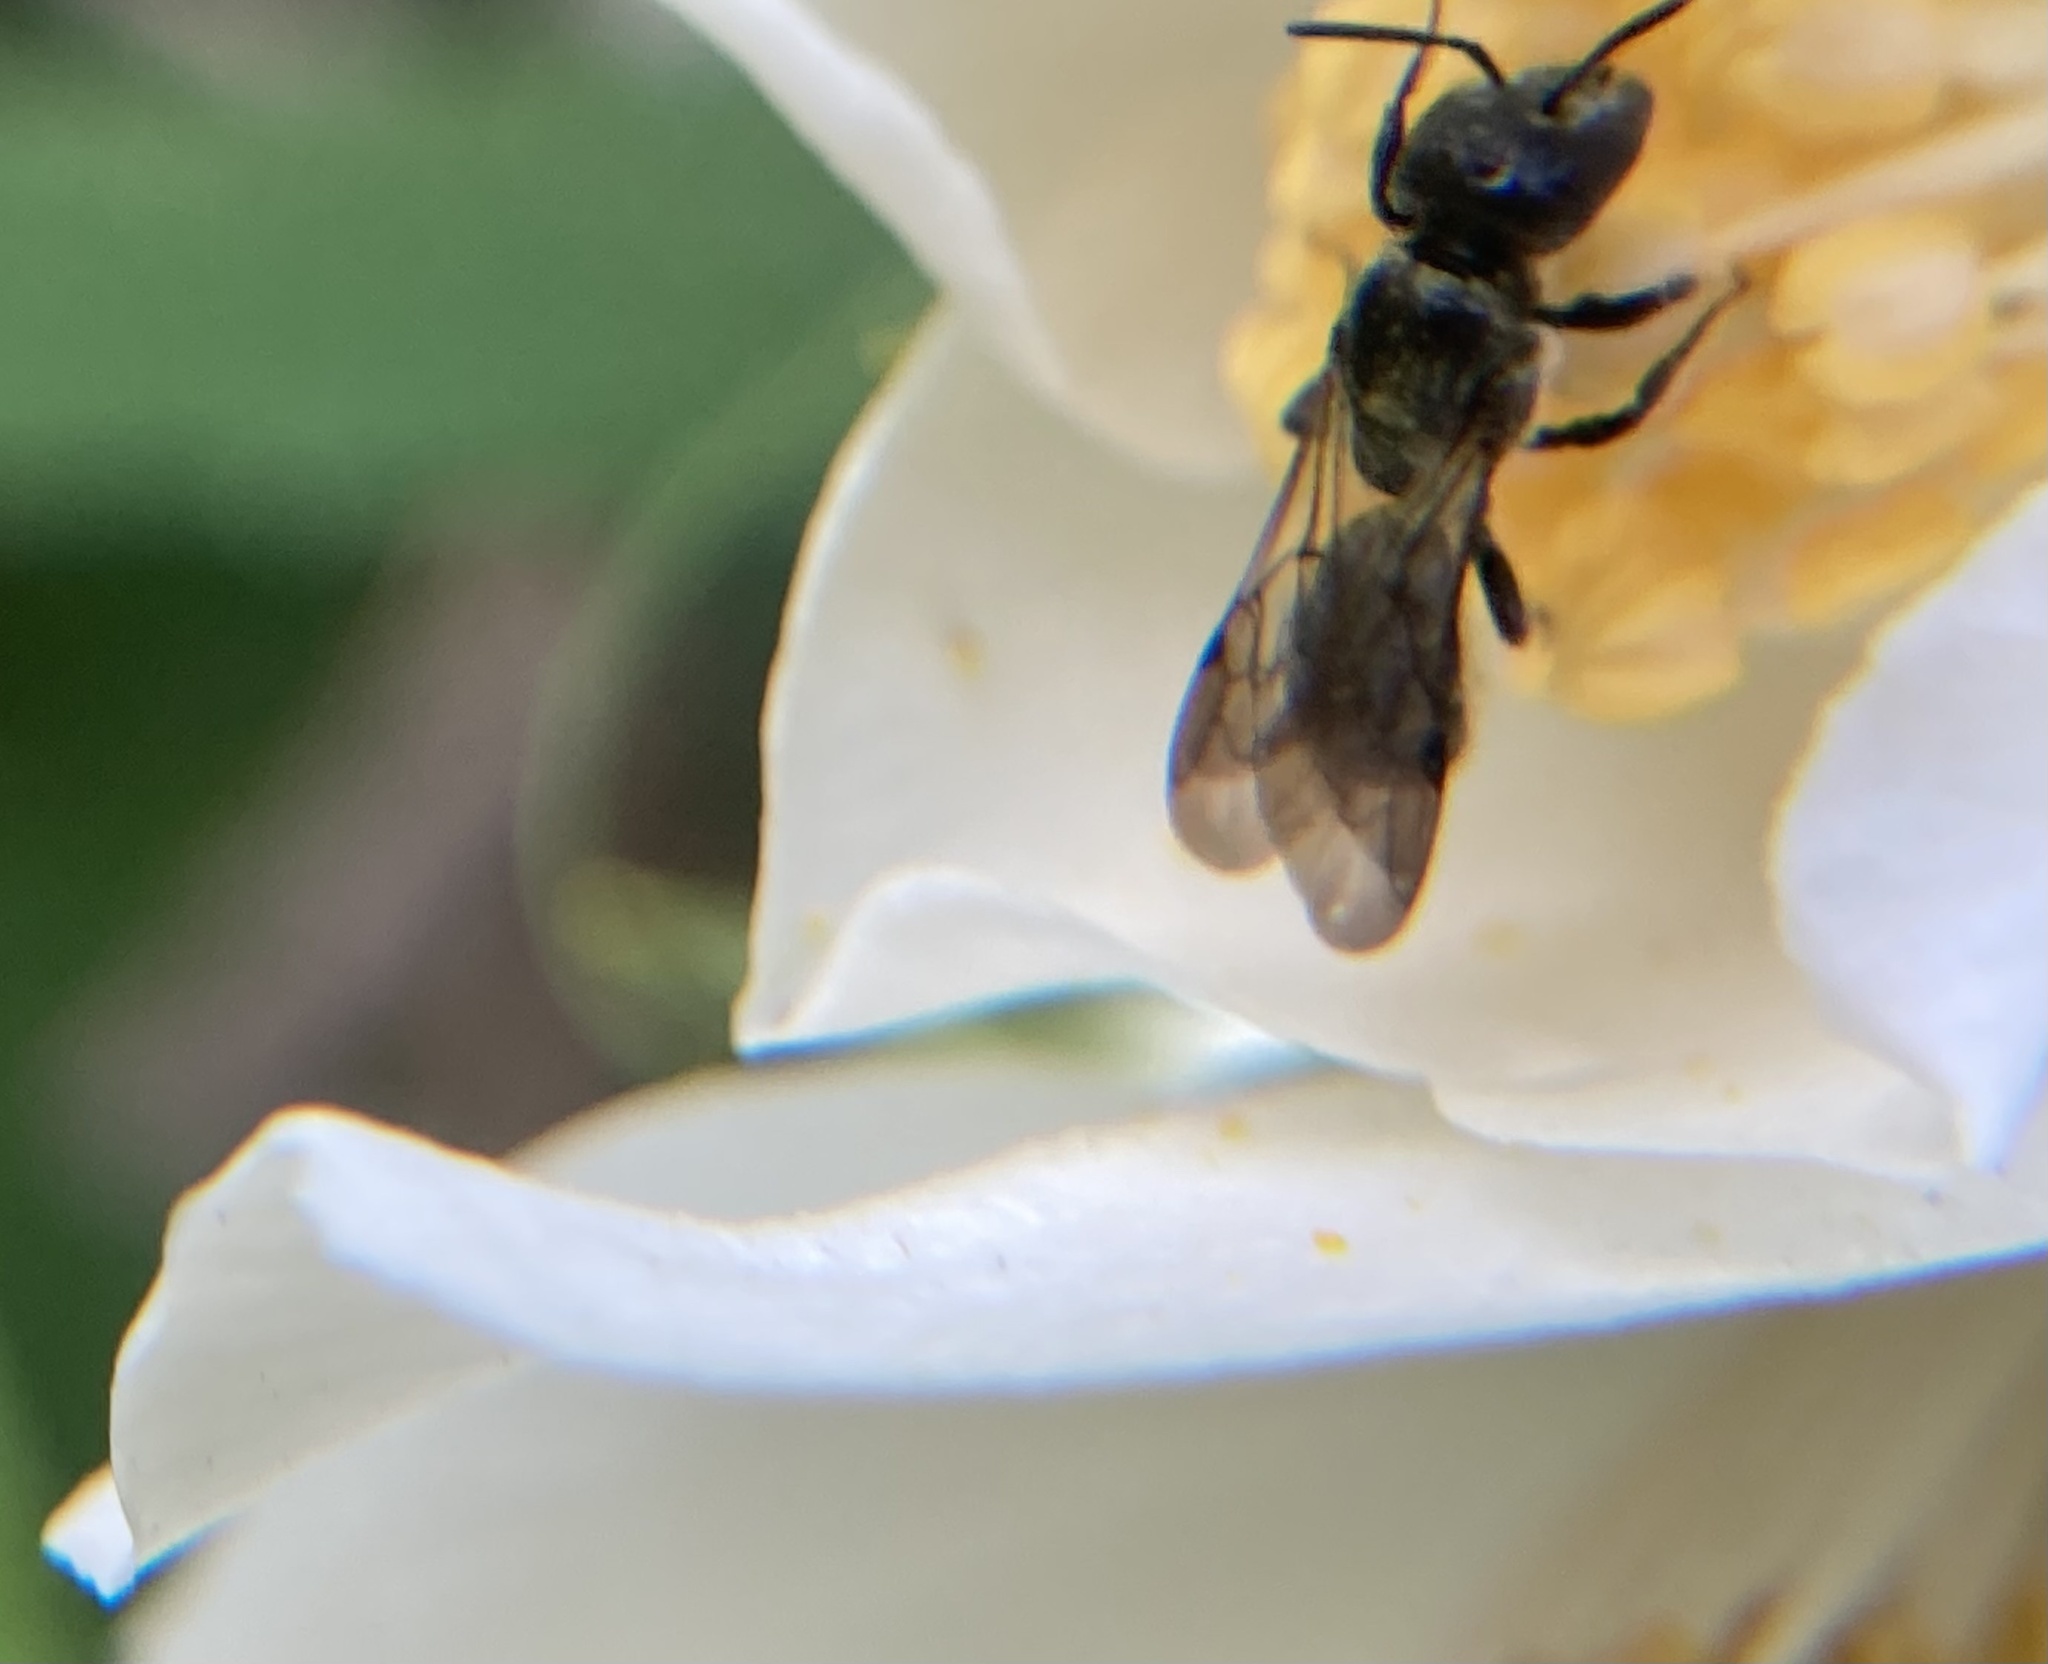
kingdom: Animalia
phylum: Arthropoda
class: Insecta
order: Hymenoptera
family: Megachilidae
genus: Chelostoma
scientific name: Chelostoma philadelphi
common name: Mock-orange scissor bee
